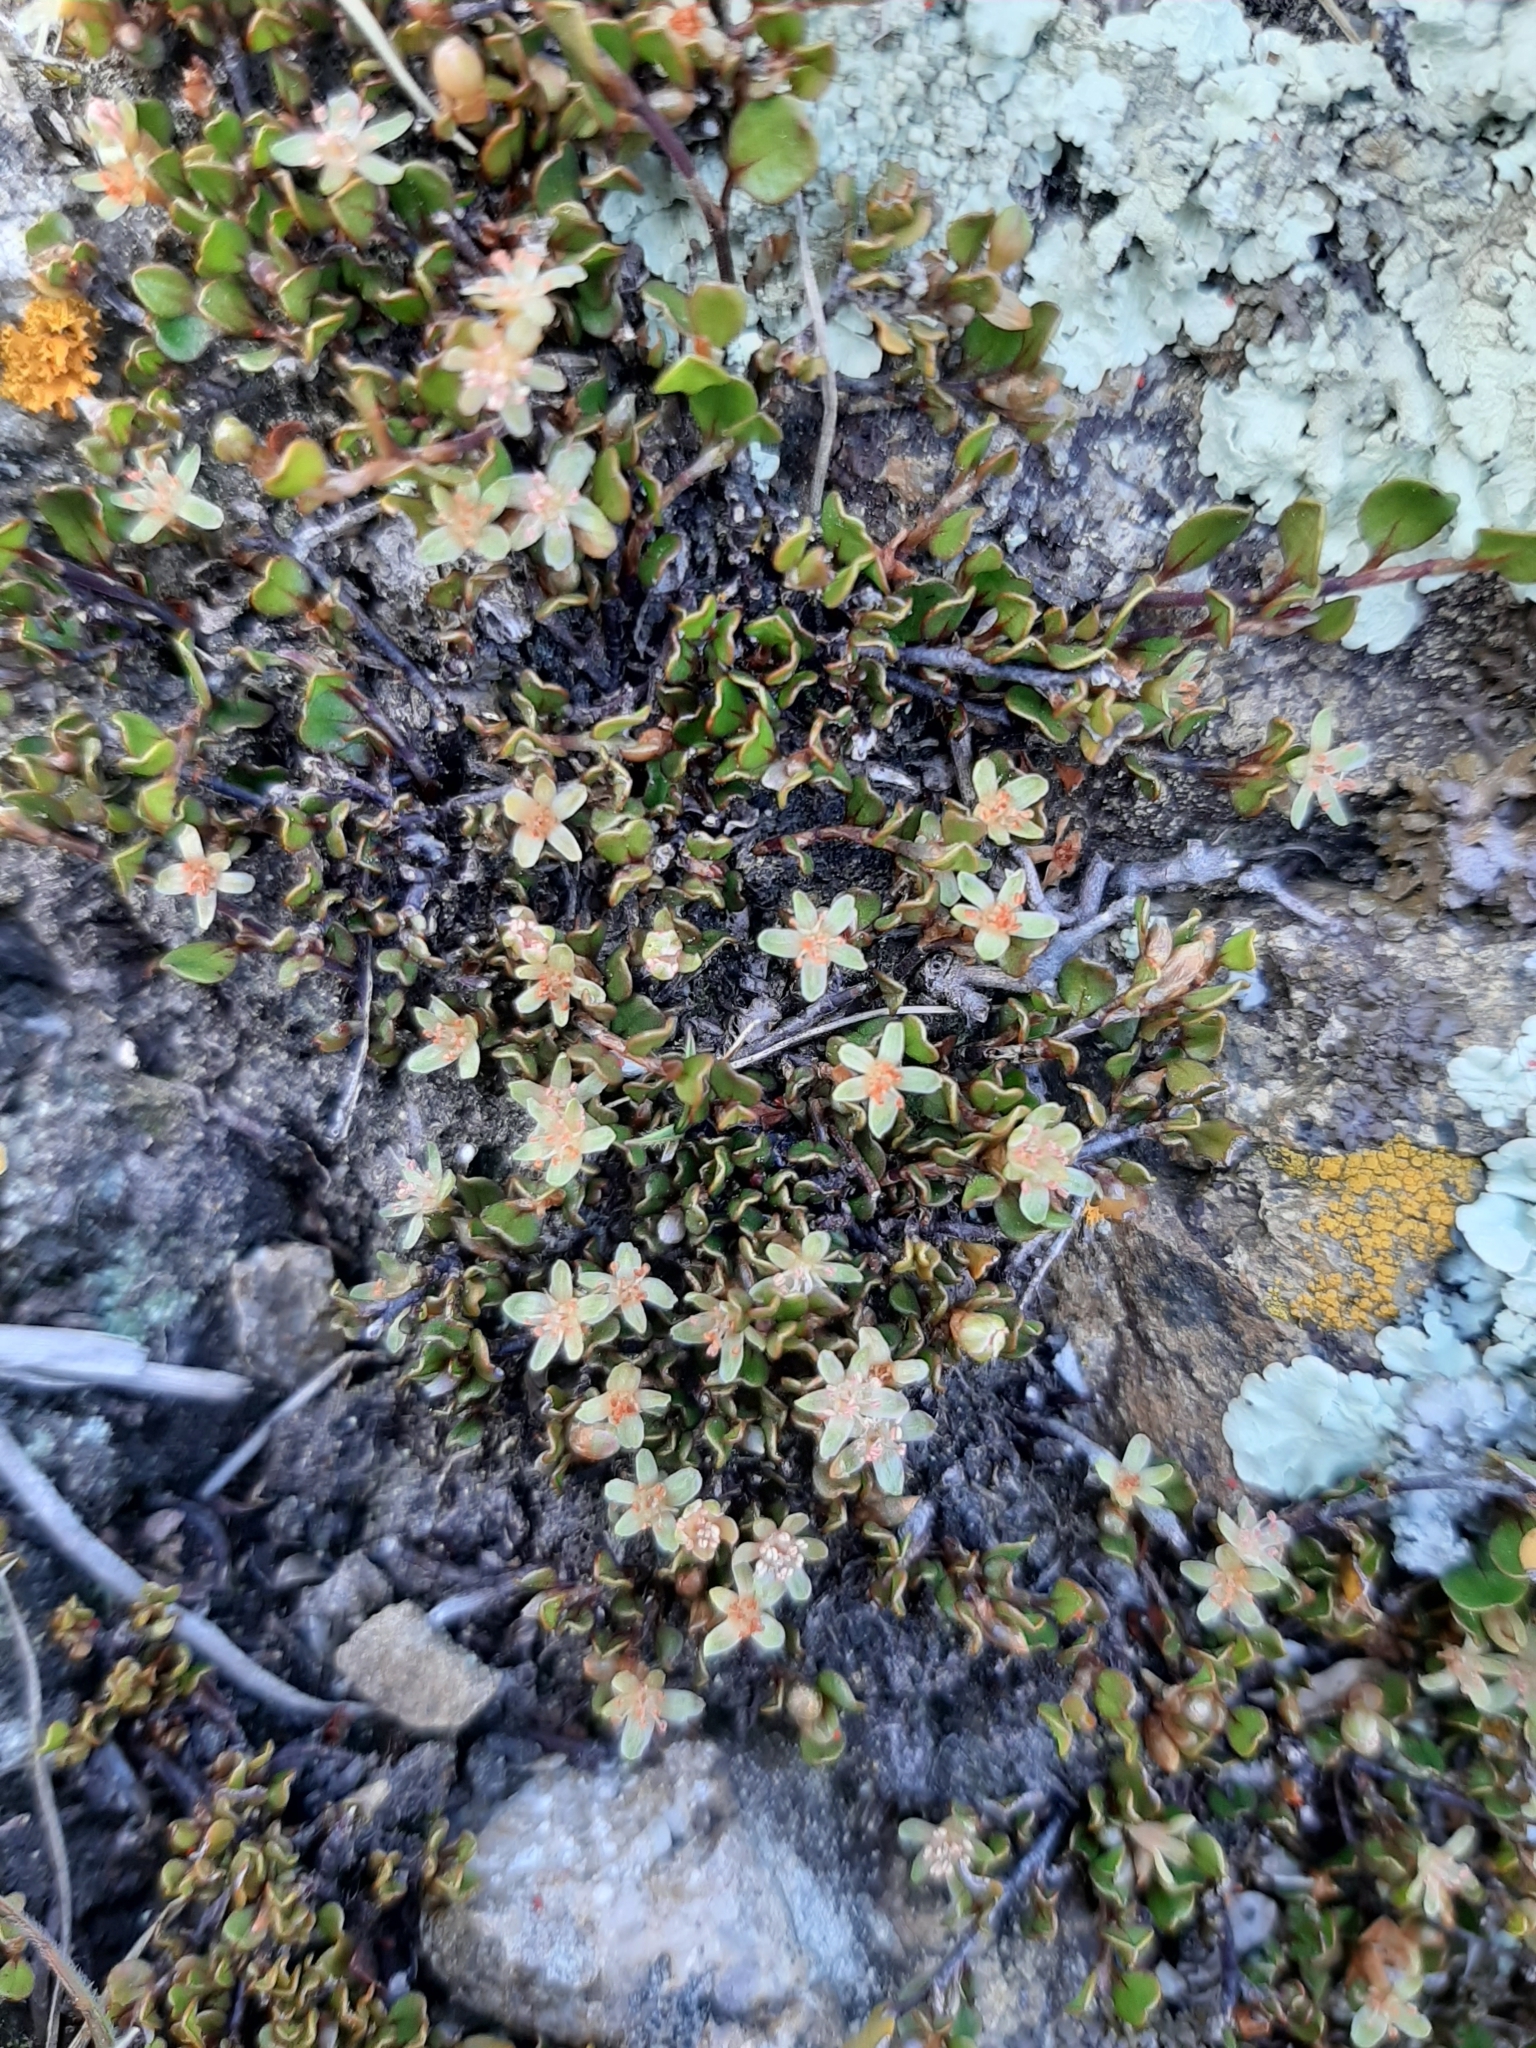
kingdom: Plantae
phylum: Tracheophyta
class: Magnoliopsida
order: Caryophyllales
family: Polygonaceae
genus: Muehlenbeckia
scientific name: Muehlenbeckia axillaris
